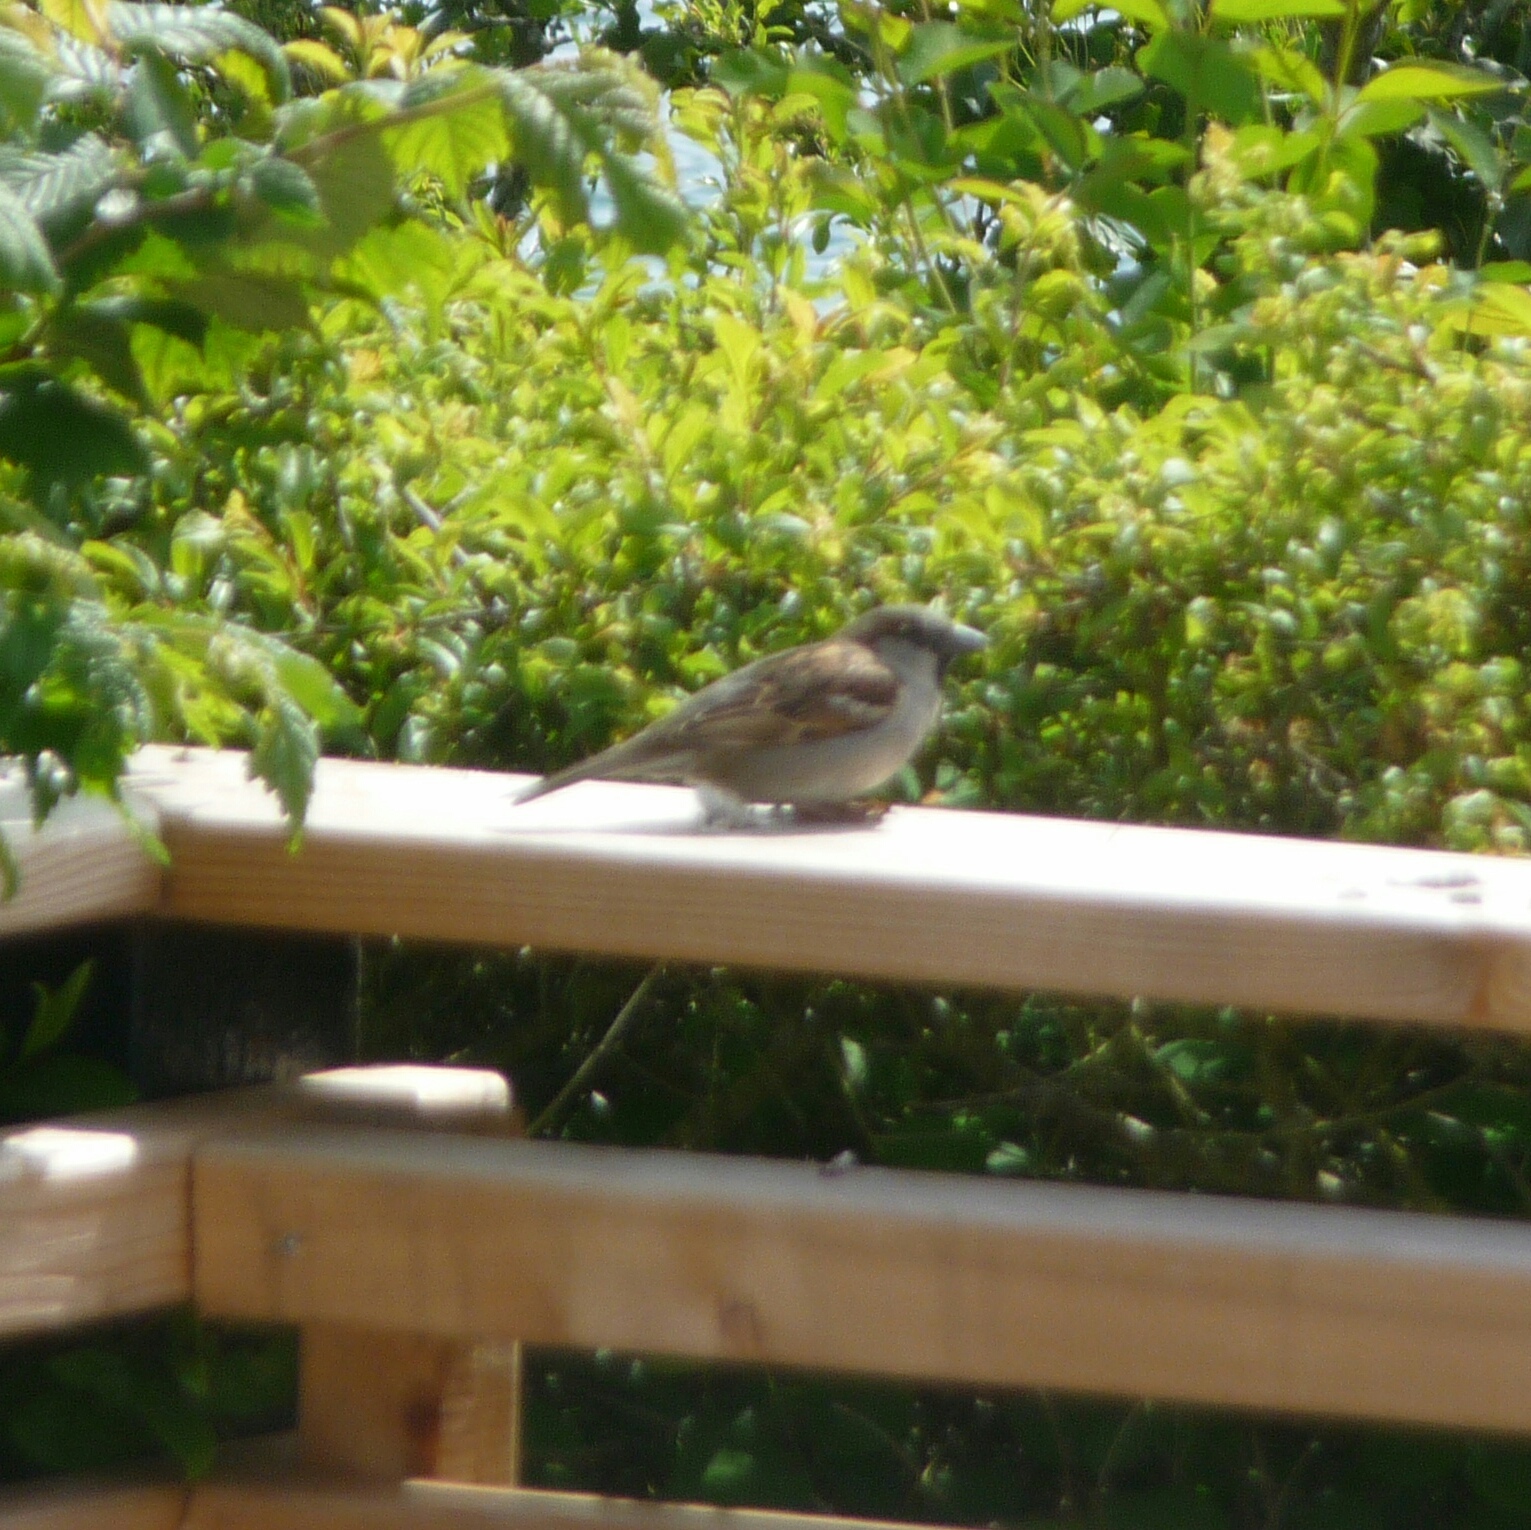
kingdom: Animalia
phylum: Chordata
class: Aves
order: Passeriformes
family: Passeridae
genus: Passer
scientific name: Passer domesticus
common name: House sparrow
